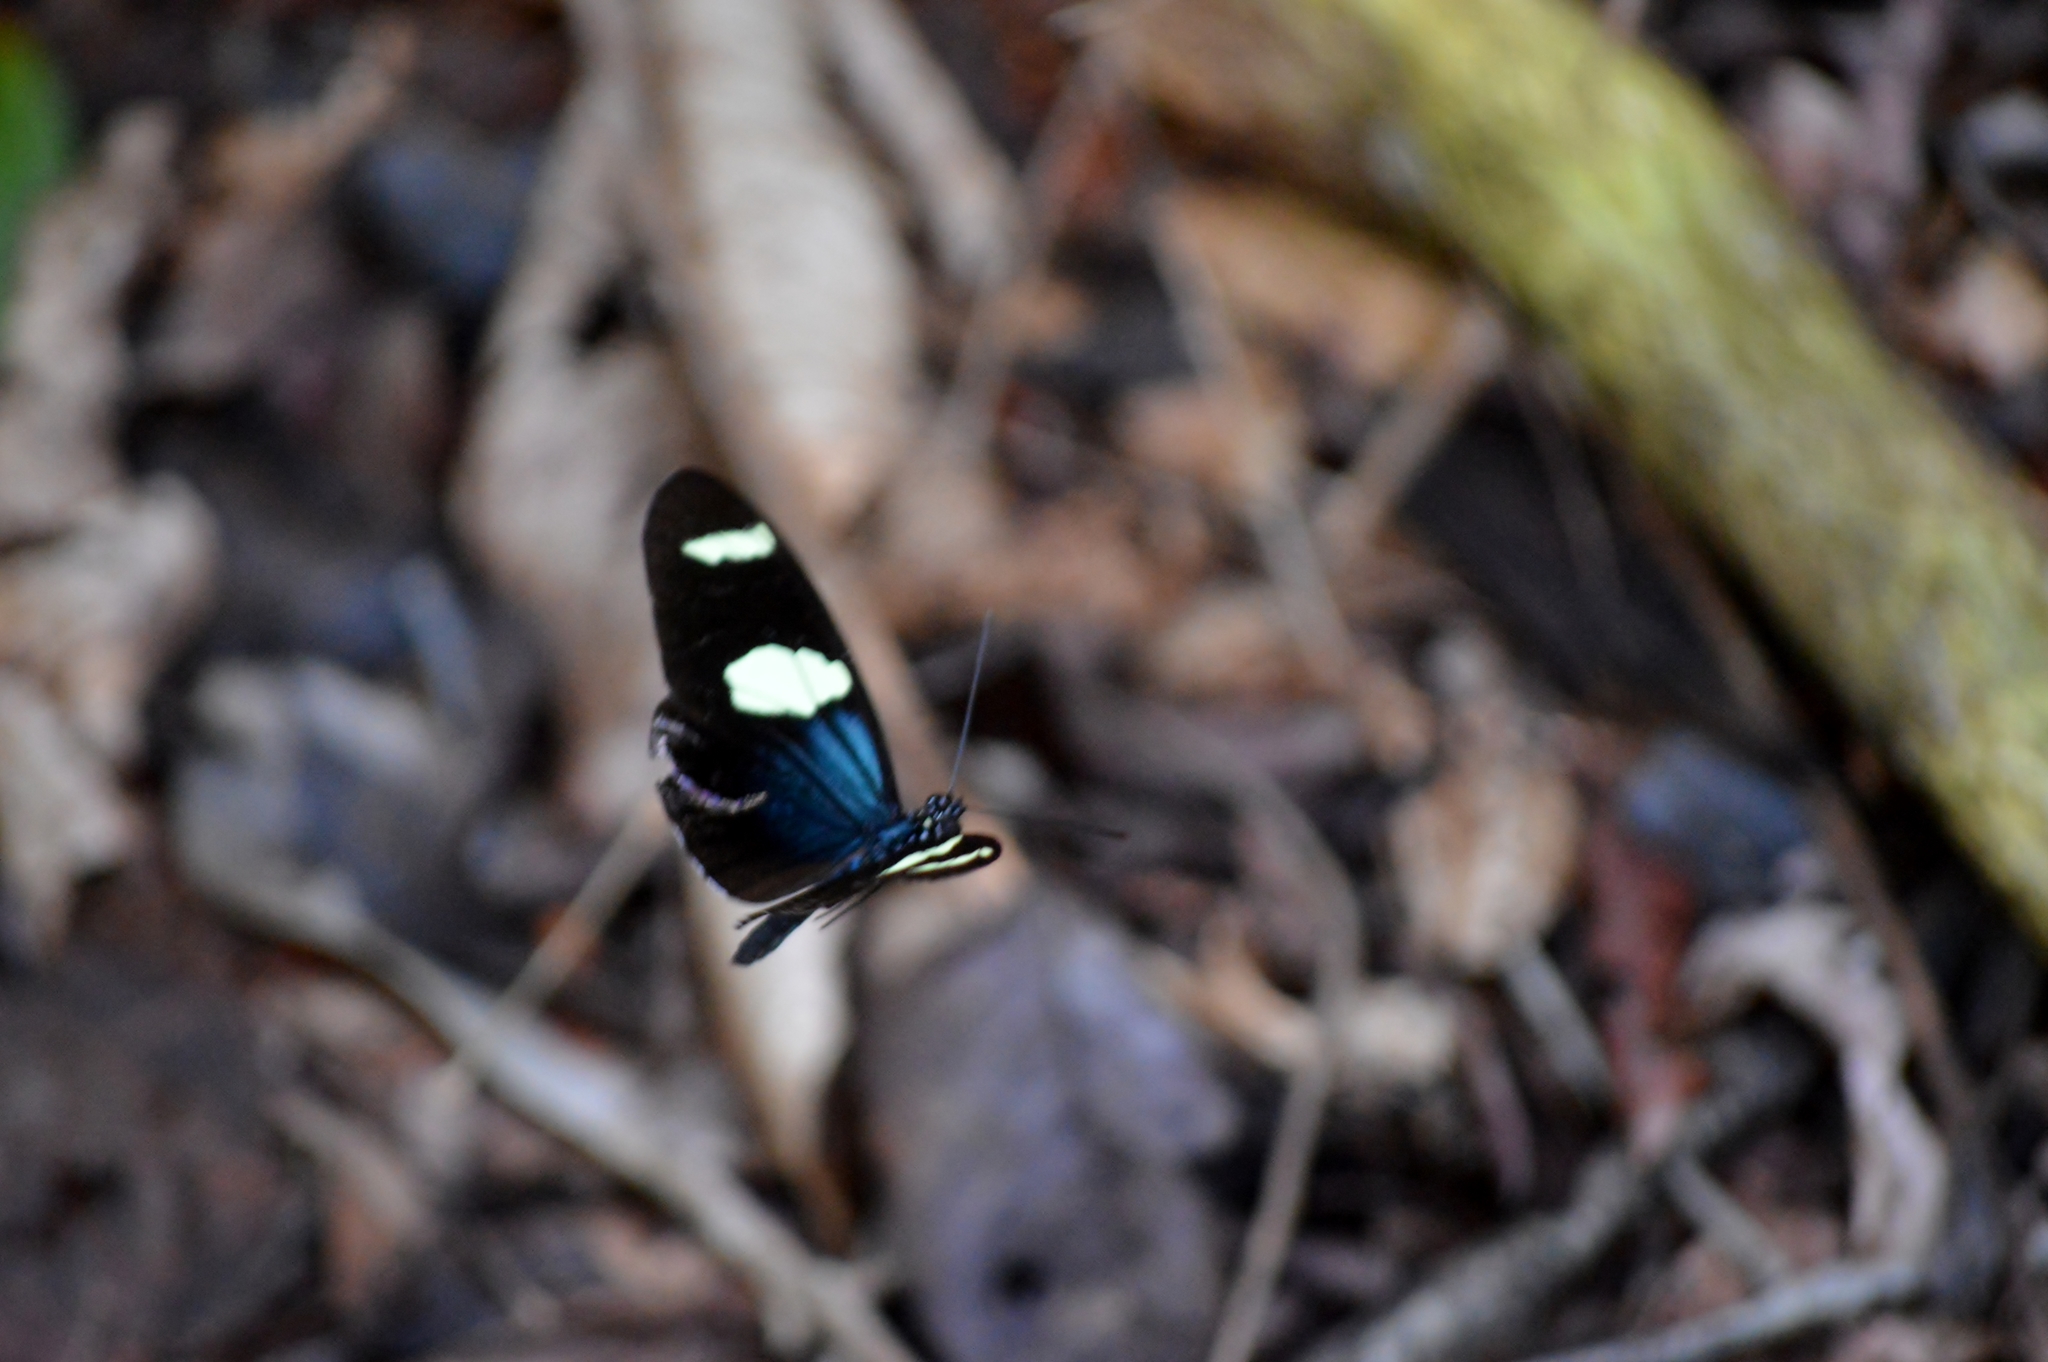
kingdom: Animalia
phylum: Arthropoda
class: Insecta
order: Lepidoptera
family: Nymphalidae
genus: Heliconius
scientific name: Heliconius sara
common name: Sara longwing
